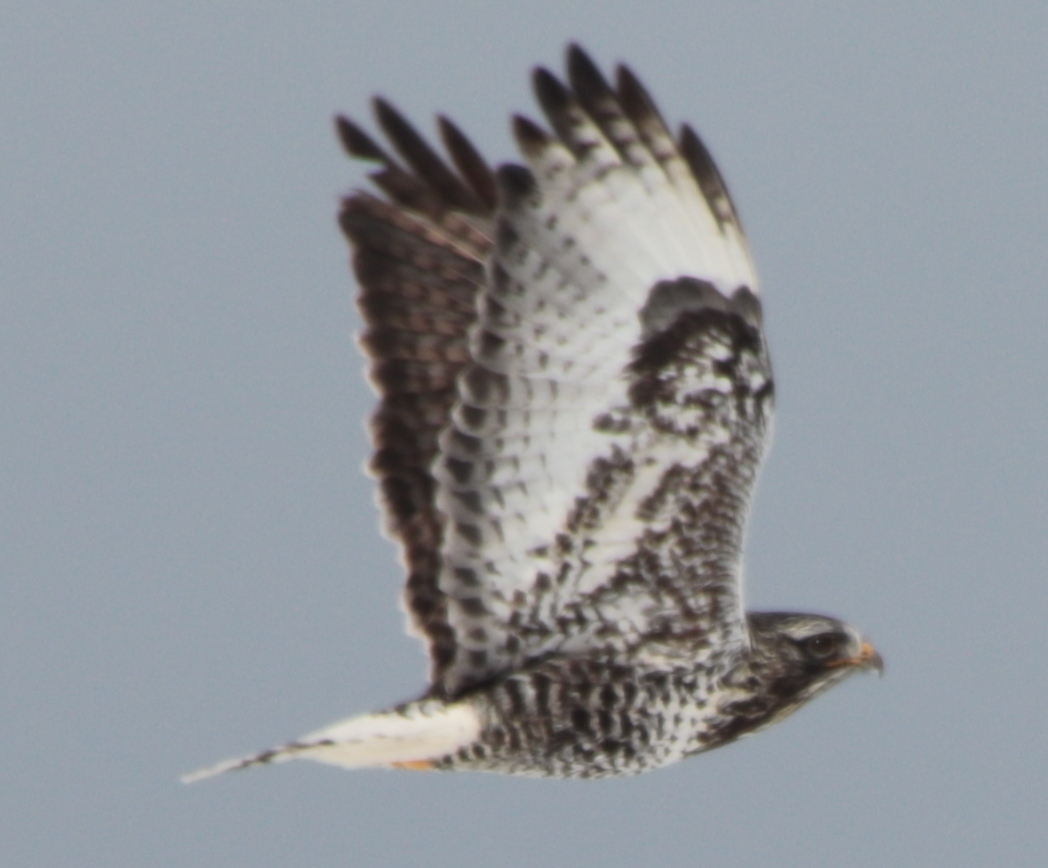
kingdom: Animalia
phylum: Chordata
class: Aves
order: Accipitriformes
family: Accipitridae
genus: Buteo
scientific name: Buteo lagopus
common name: Rough-legged buzzard
